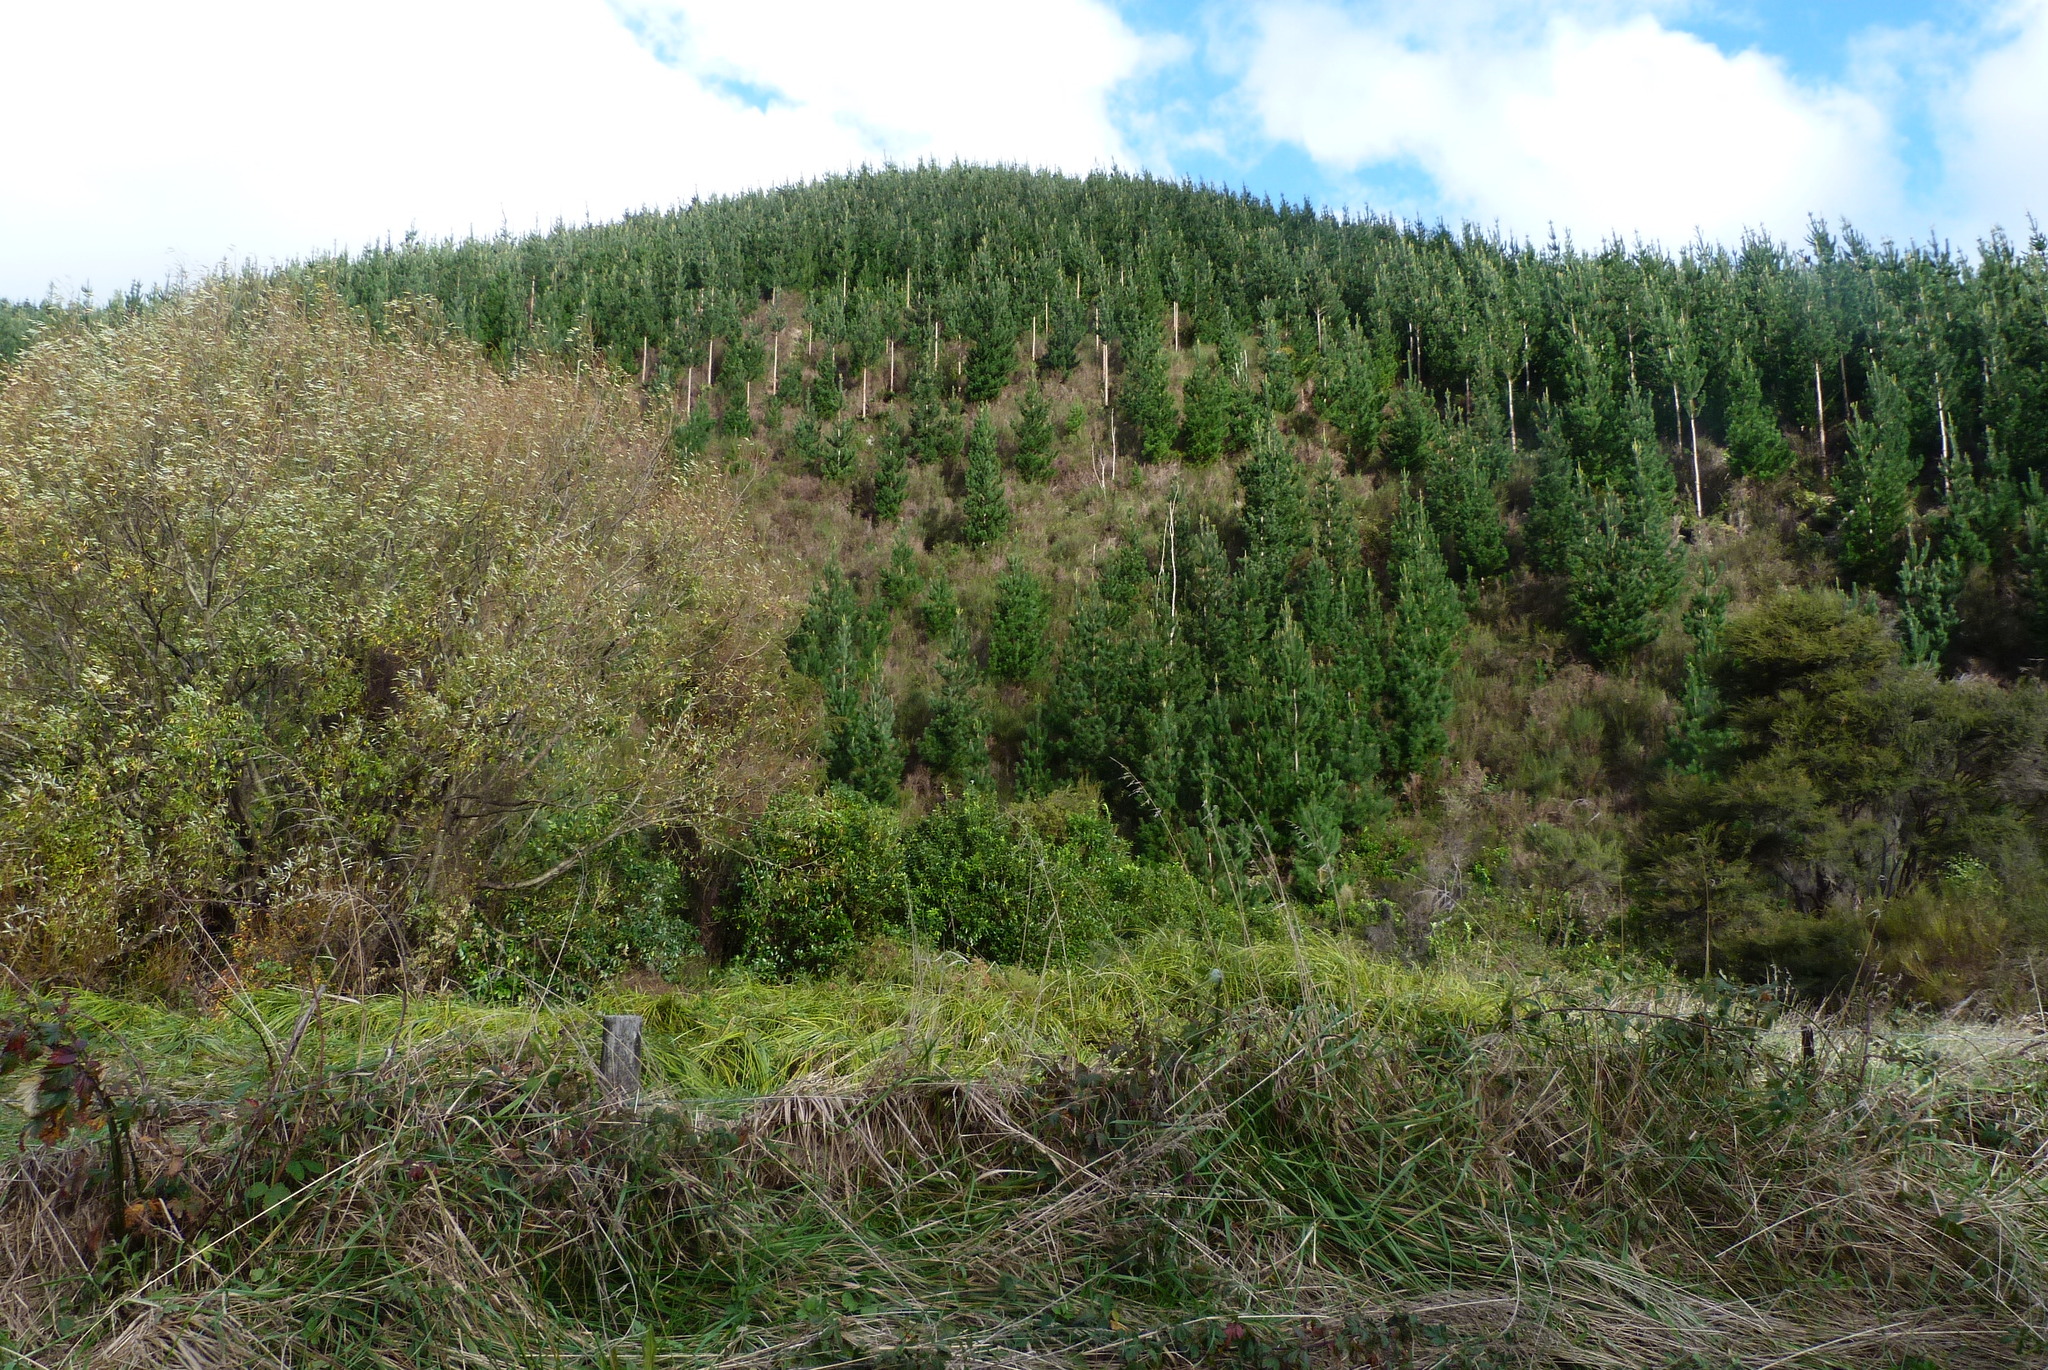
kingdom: Plantae
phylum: Tracheophyta
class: Liliopsida
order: Poales
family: Cyperaceae
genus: Carex
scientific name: Carex geminata
